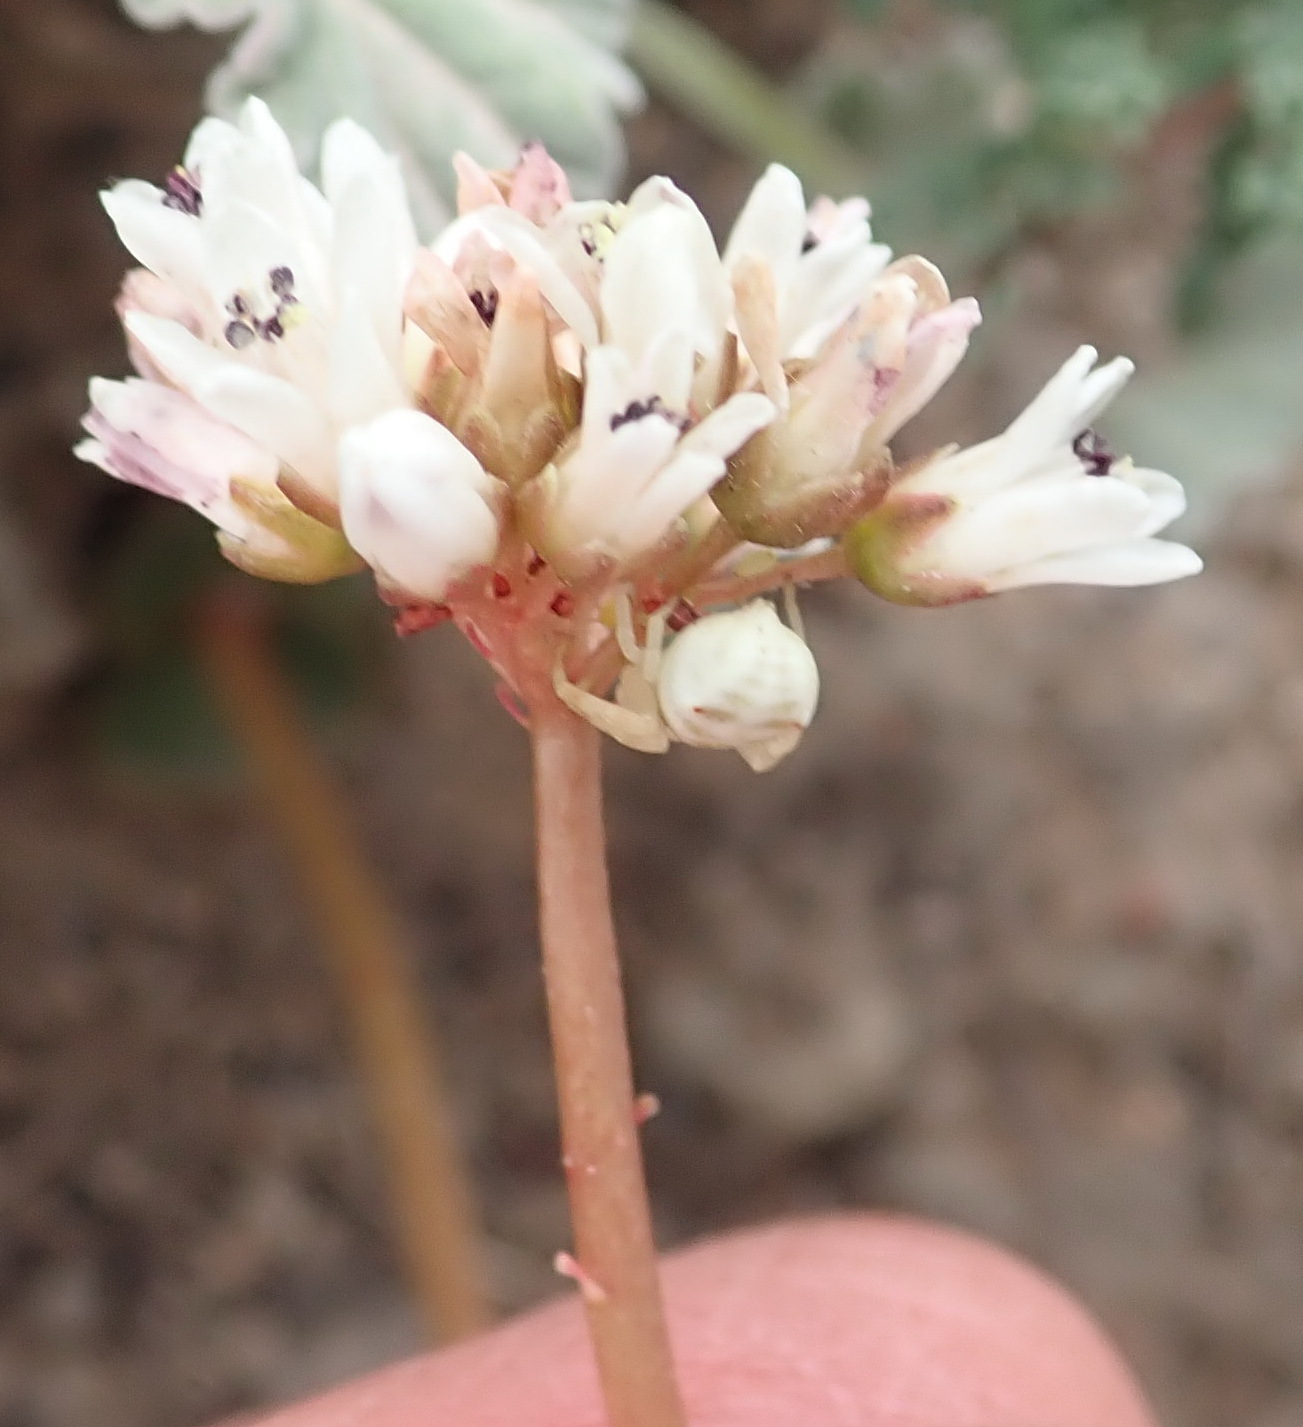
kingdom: Plantae
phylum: Tracheophyta
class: Magnoliopsida
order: Saxifragales
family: Crassulaceae
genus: Crassula
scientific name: Crassula saxifraga
